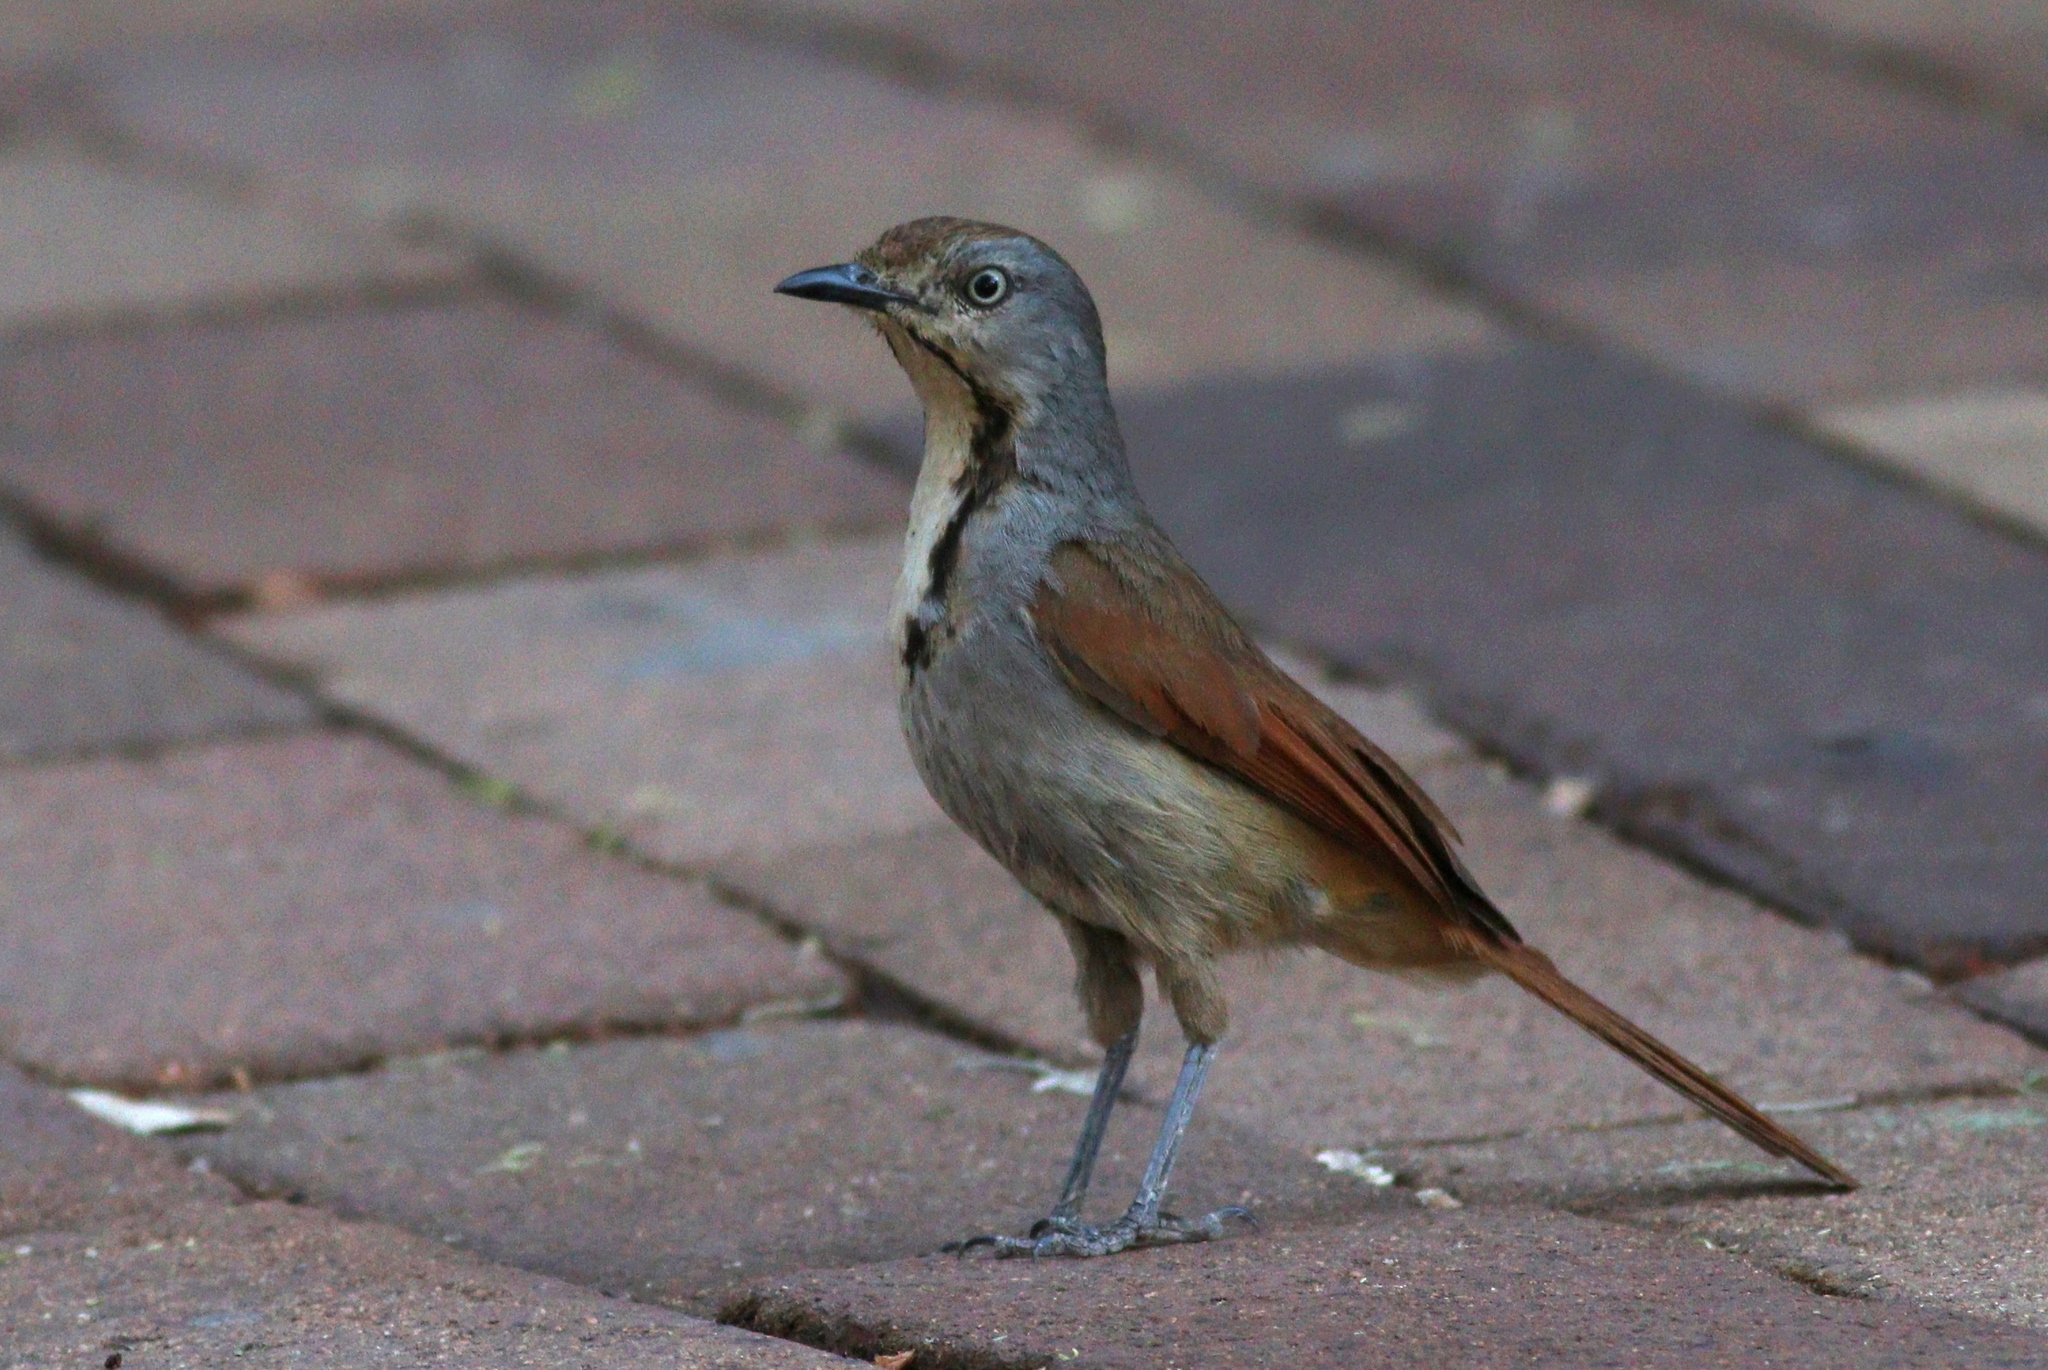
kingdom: Animalia
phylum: Chordata
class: Aves
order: Passeriformes
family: Muscicapidae
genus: Cichladusa
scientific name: Cichladusa arquata
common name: Collared palm thrush
